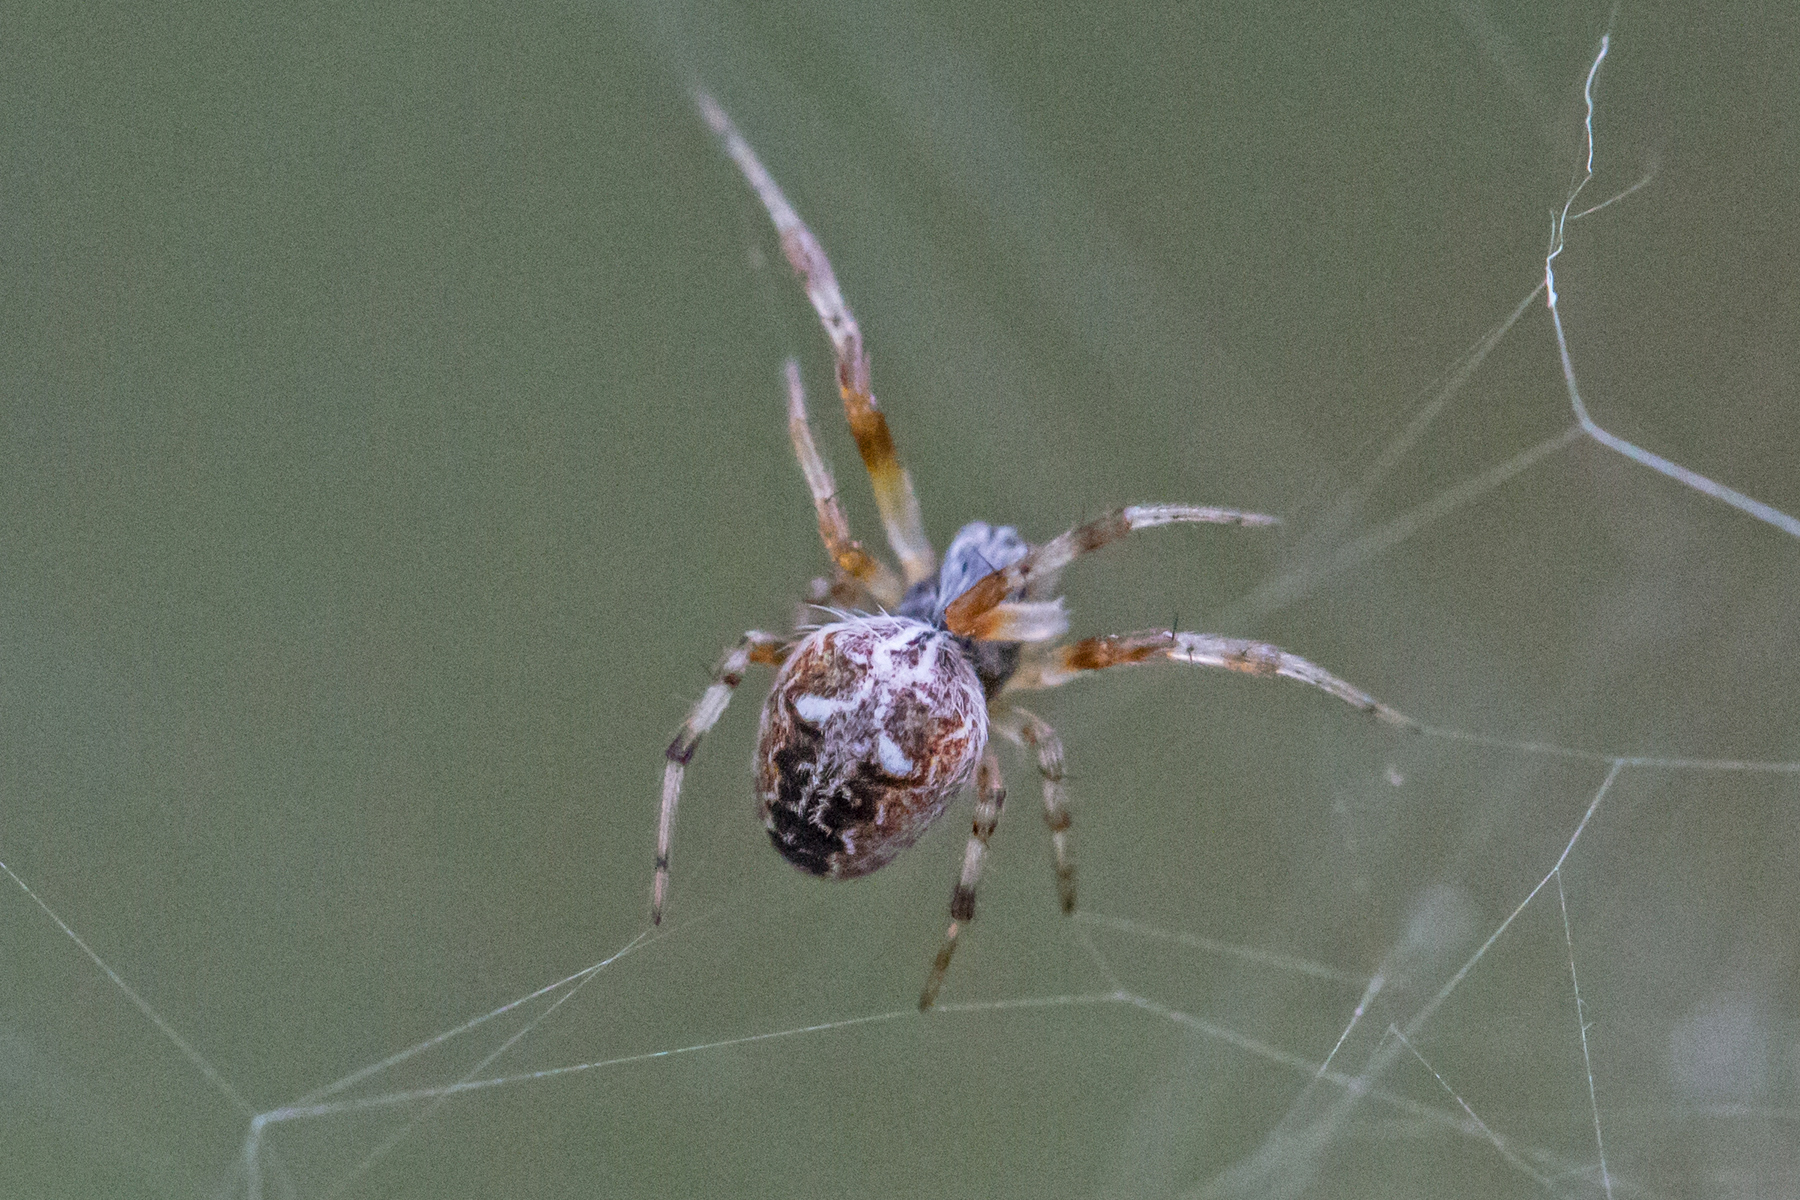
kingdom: Animalia
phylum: Arthropoda
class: Arachnida
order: Araneae
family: Araneidae
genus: Metepeira
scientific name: Metepeira labyrinthea
